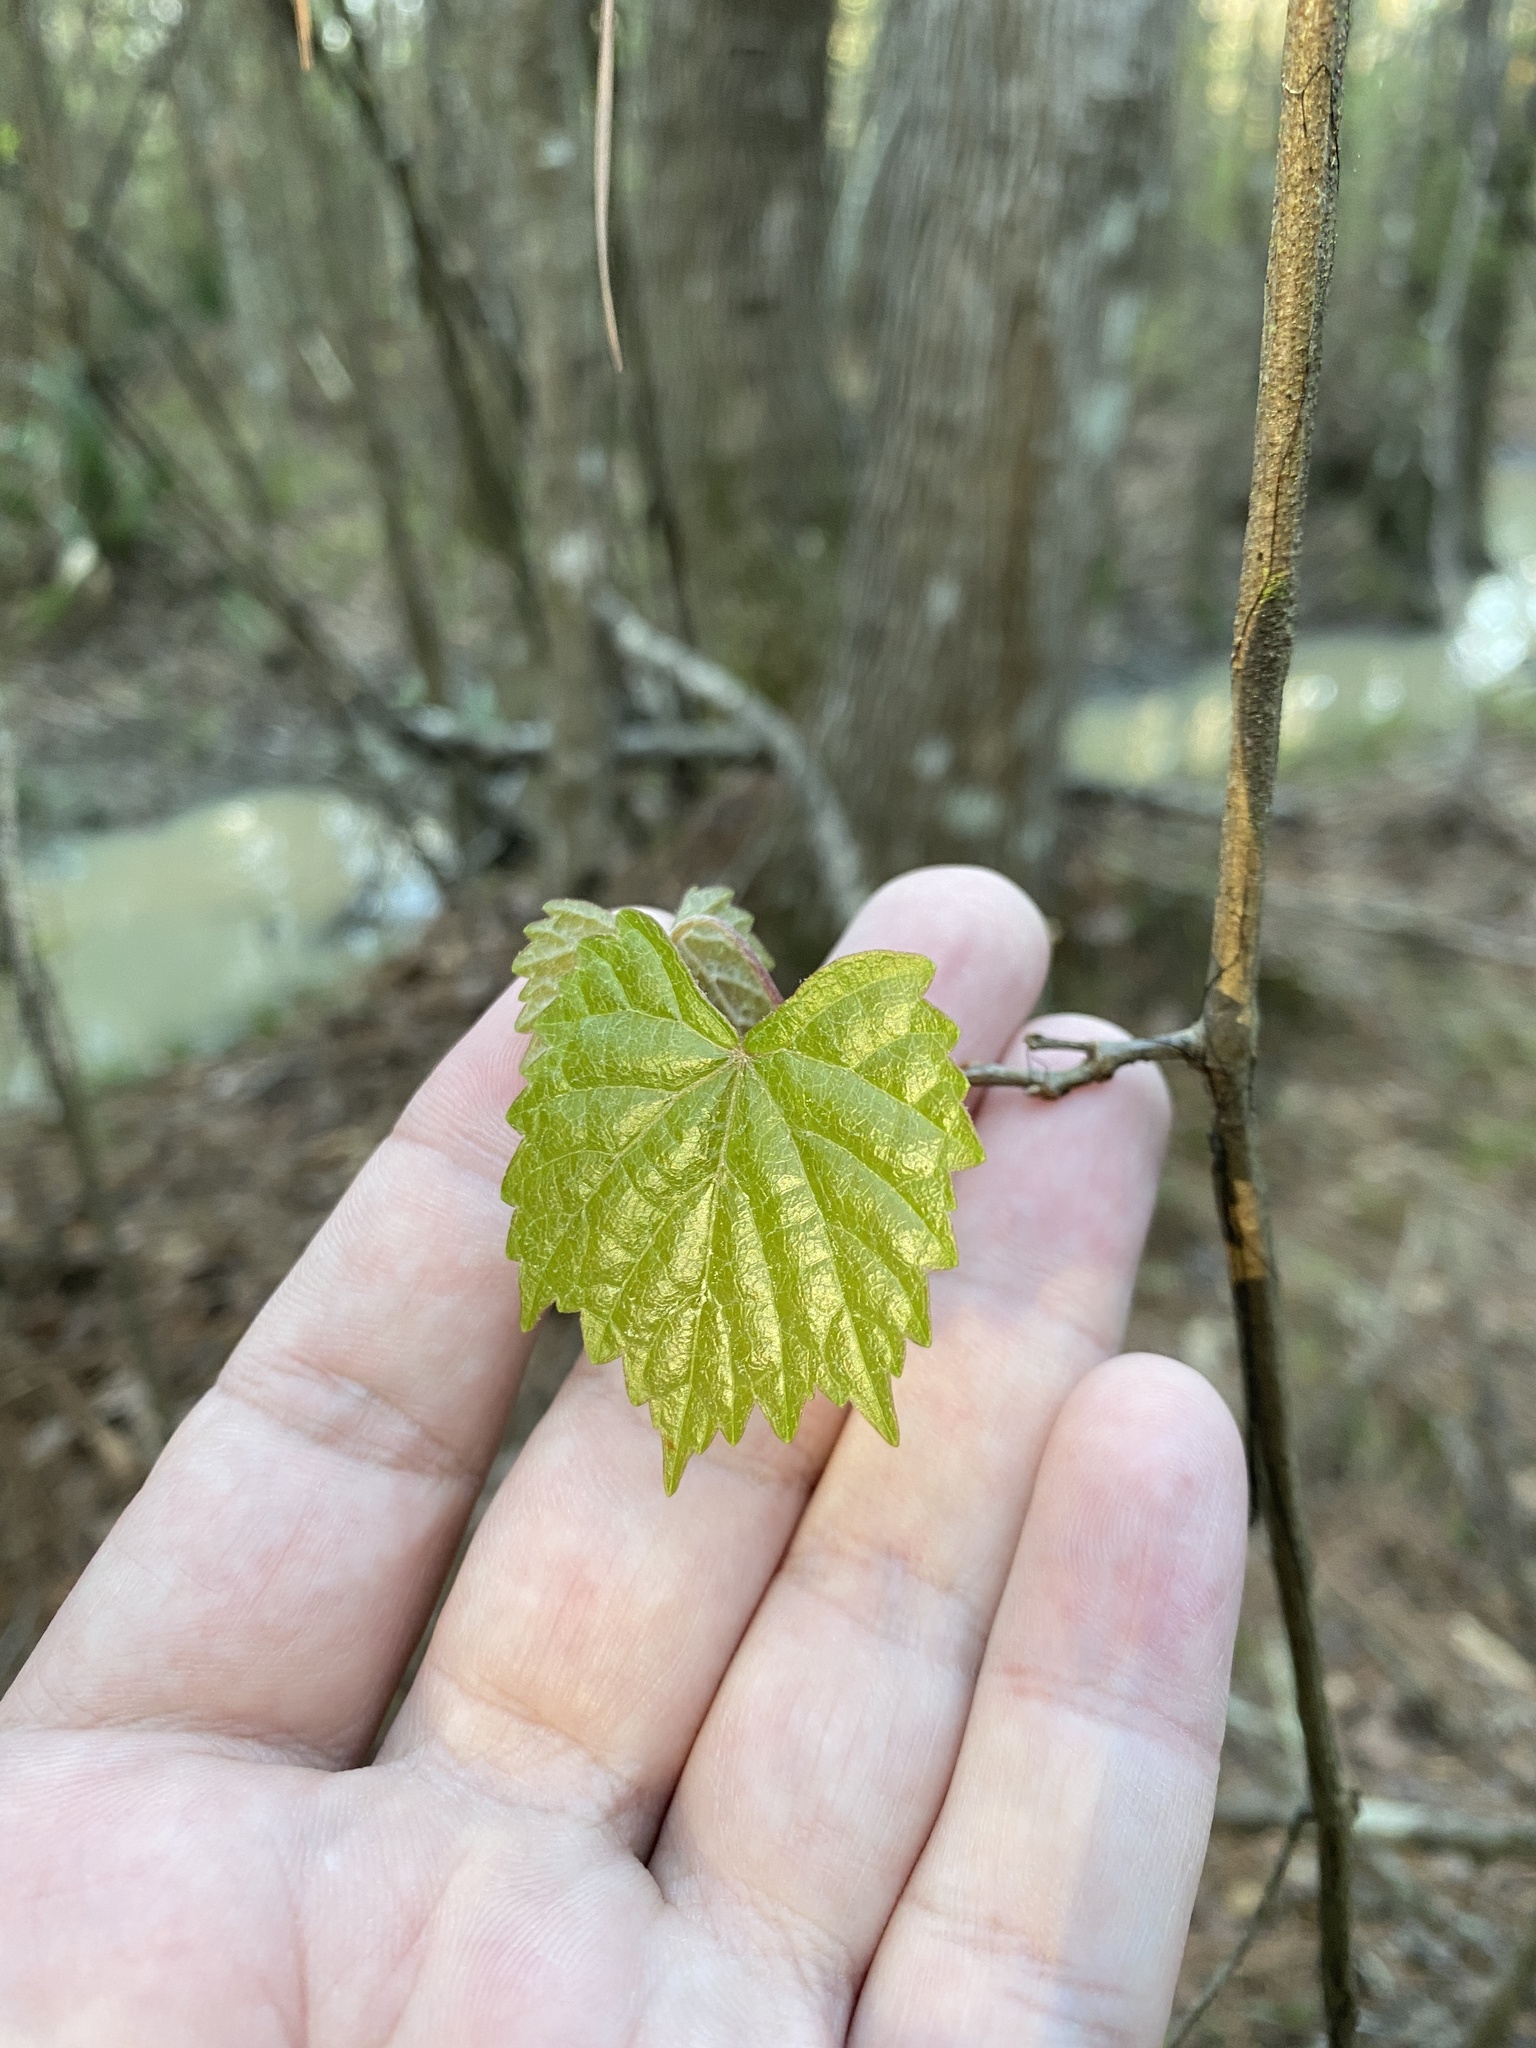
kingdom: Plantae
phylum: Tracheophyta
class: Magnoliopsida
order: Vitales
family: Vitaceae
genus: Vitis
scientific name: Vitis rotundifolia
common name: Muscadine grape
